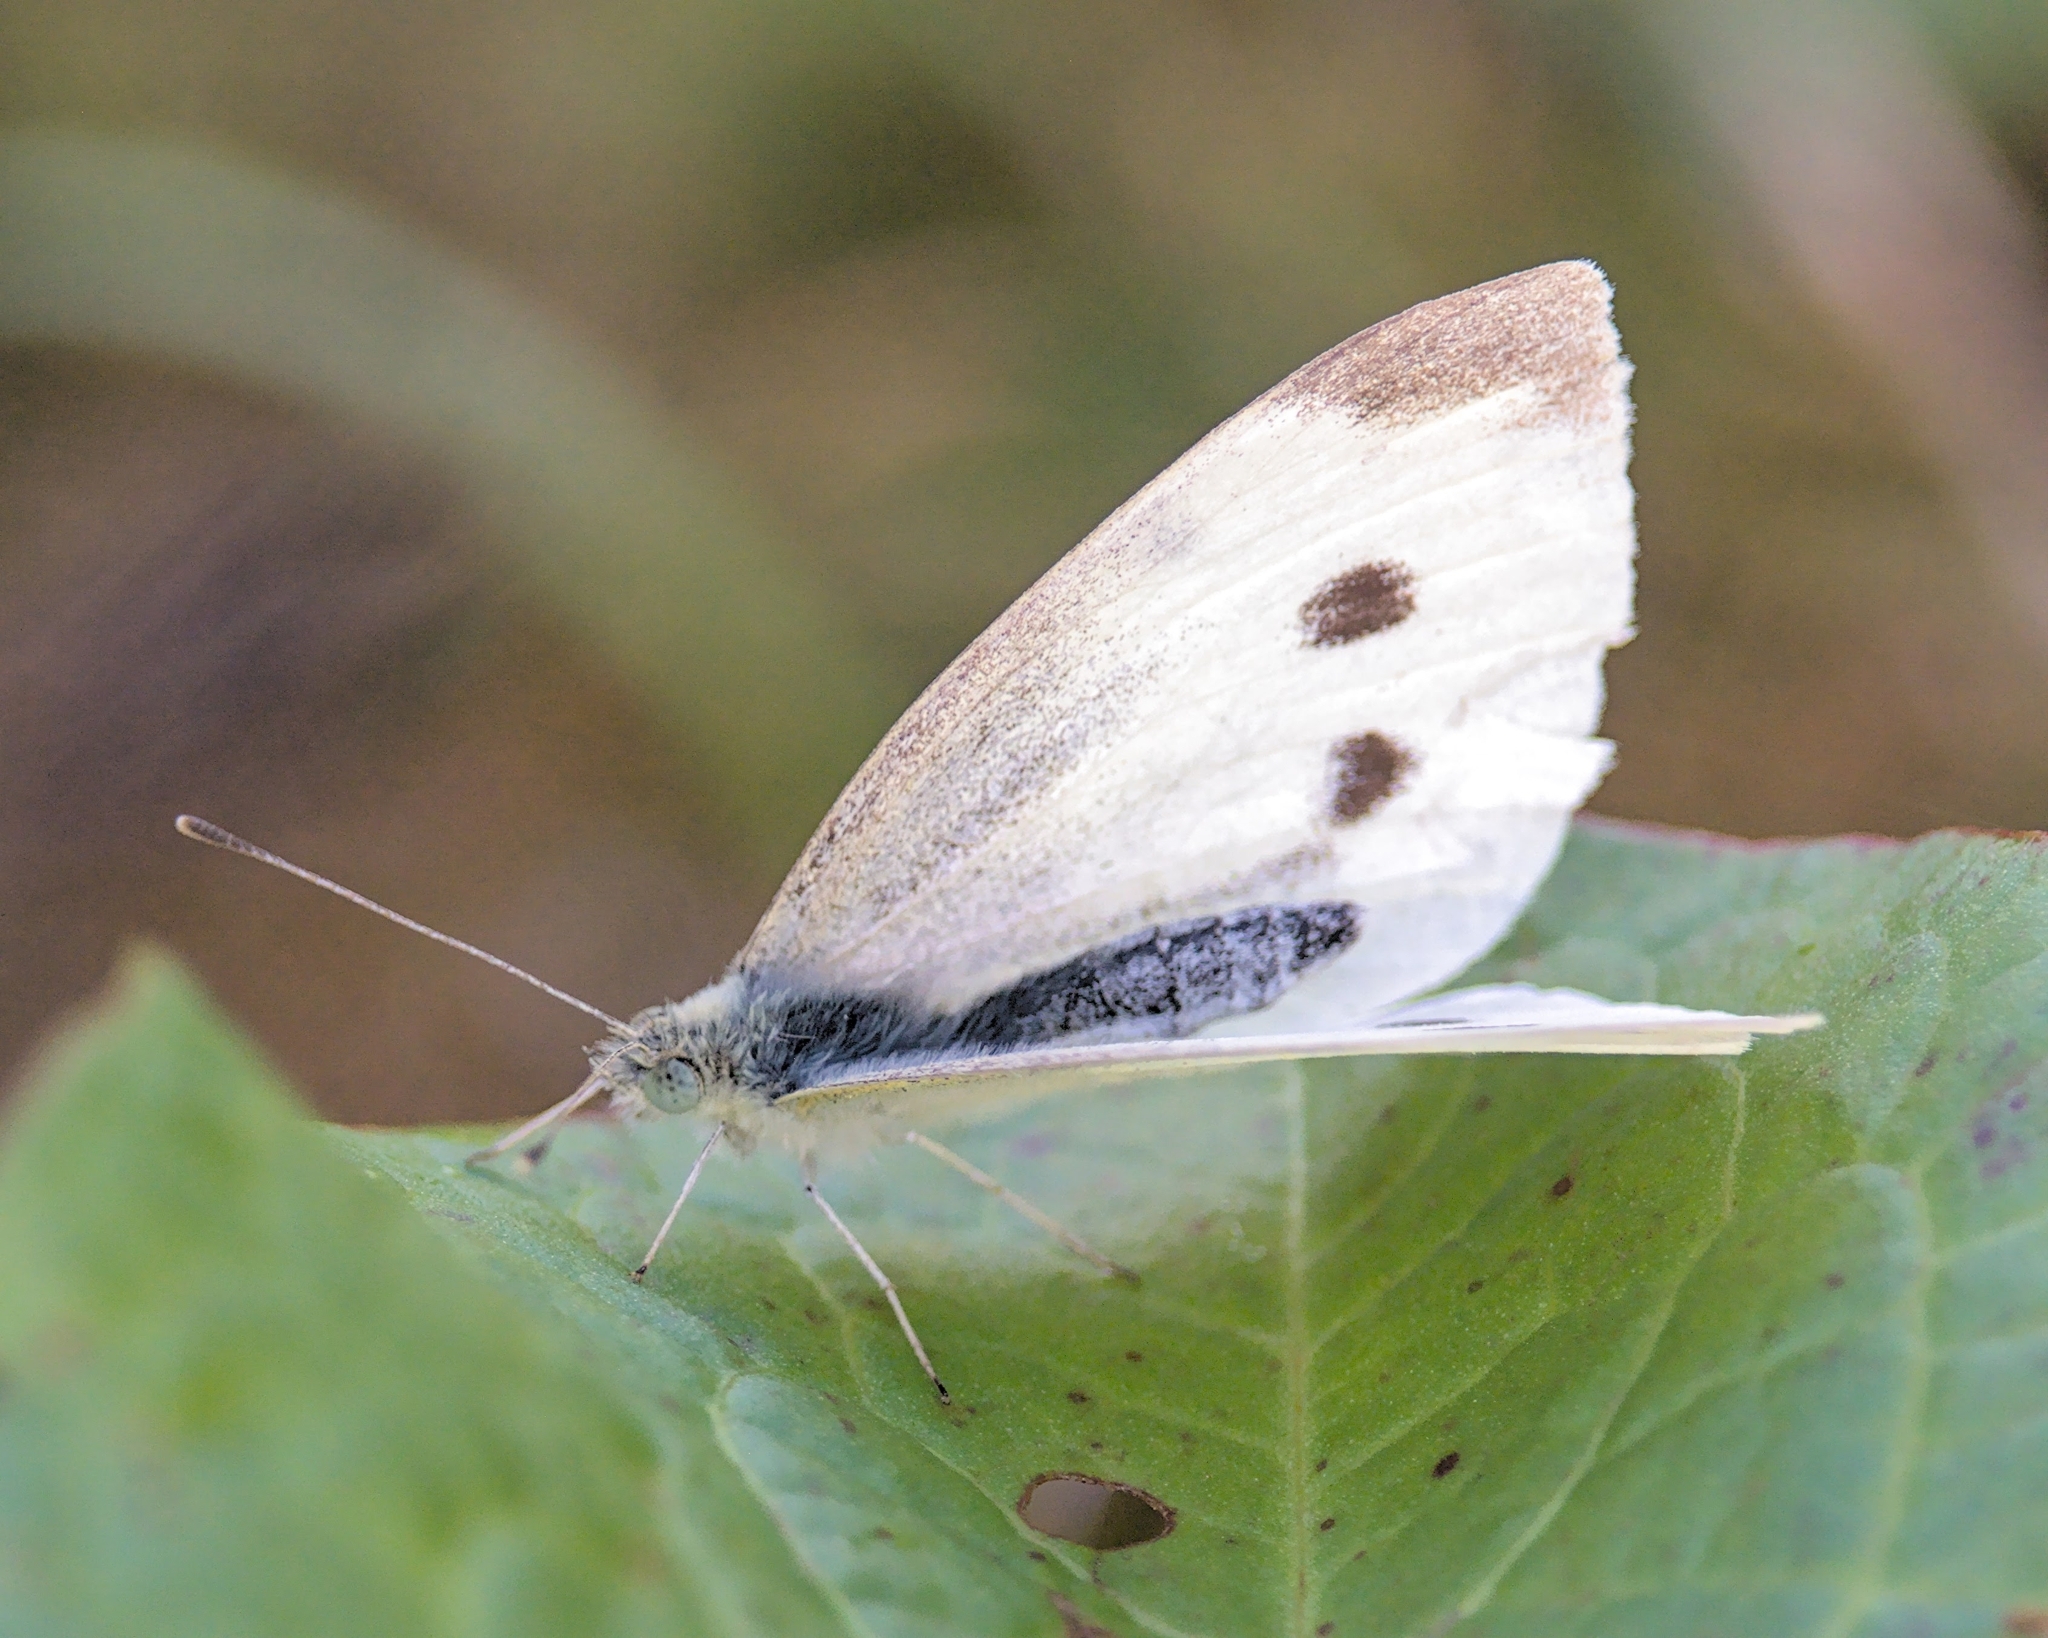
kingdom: Animalia
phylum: Arthropoda
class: Insecta
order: Lepidoptera
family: Pieridae
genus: Pieris
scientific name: Pieris rapae
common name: Small white
